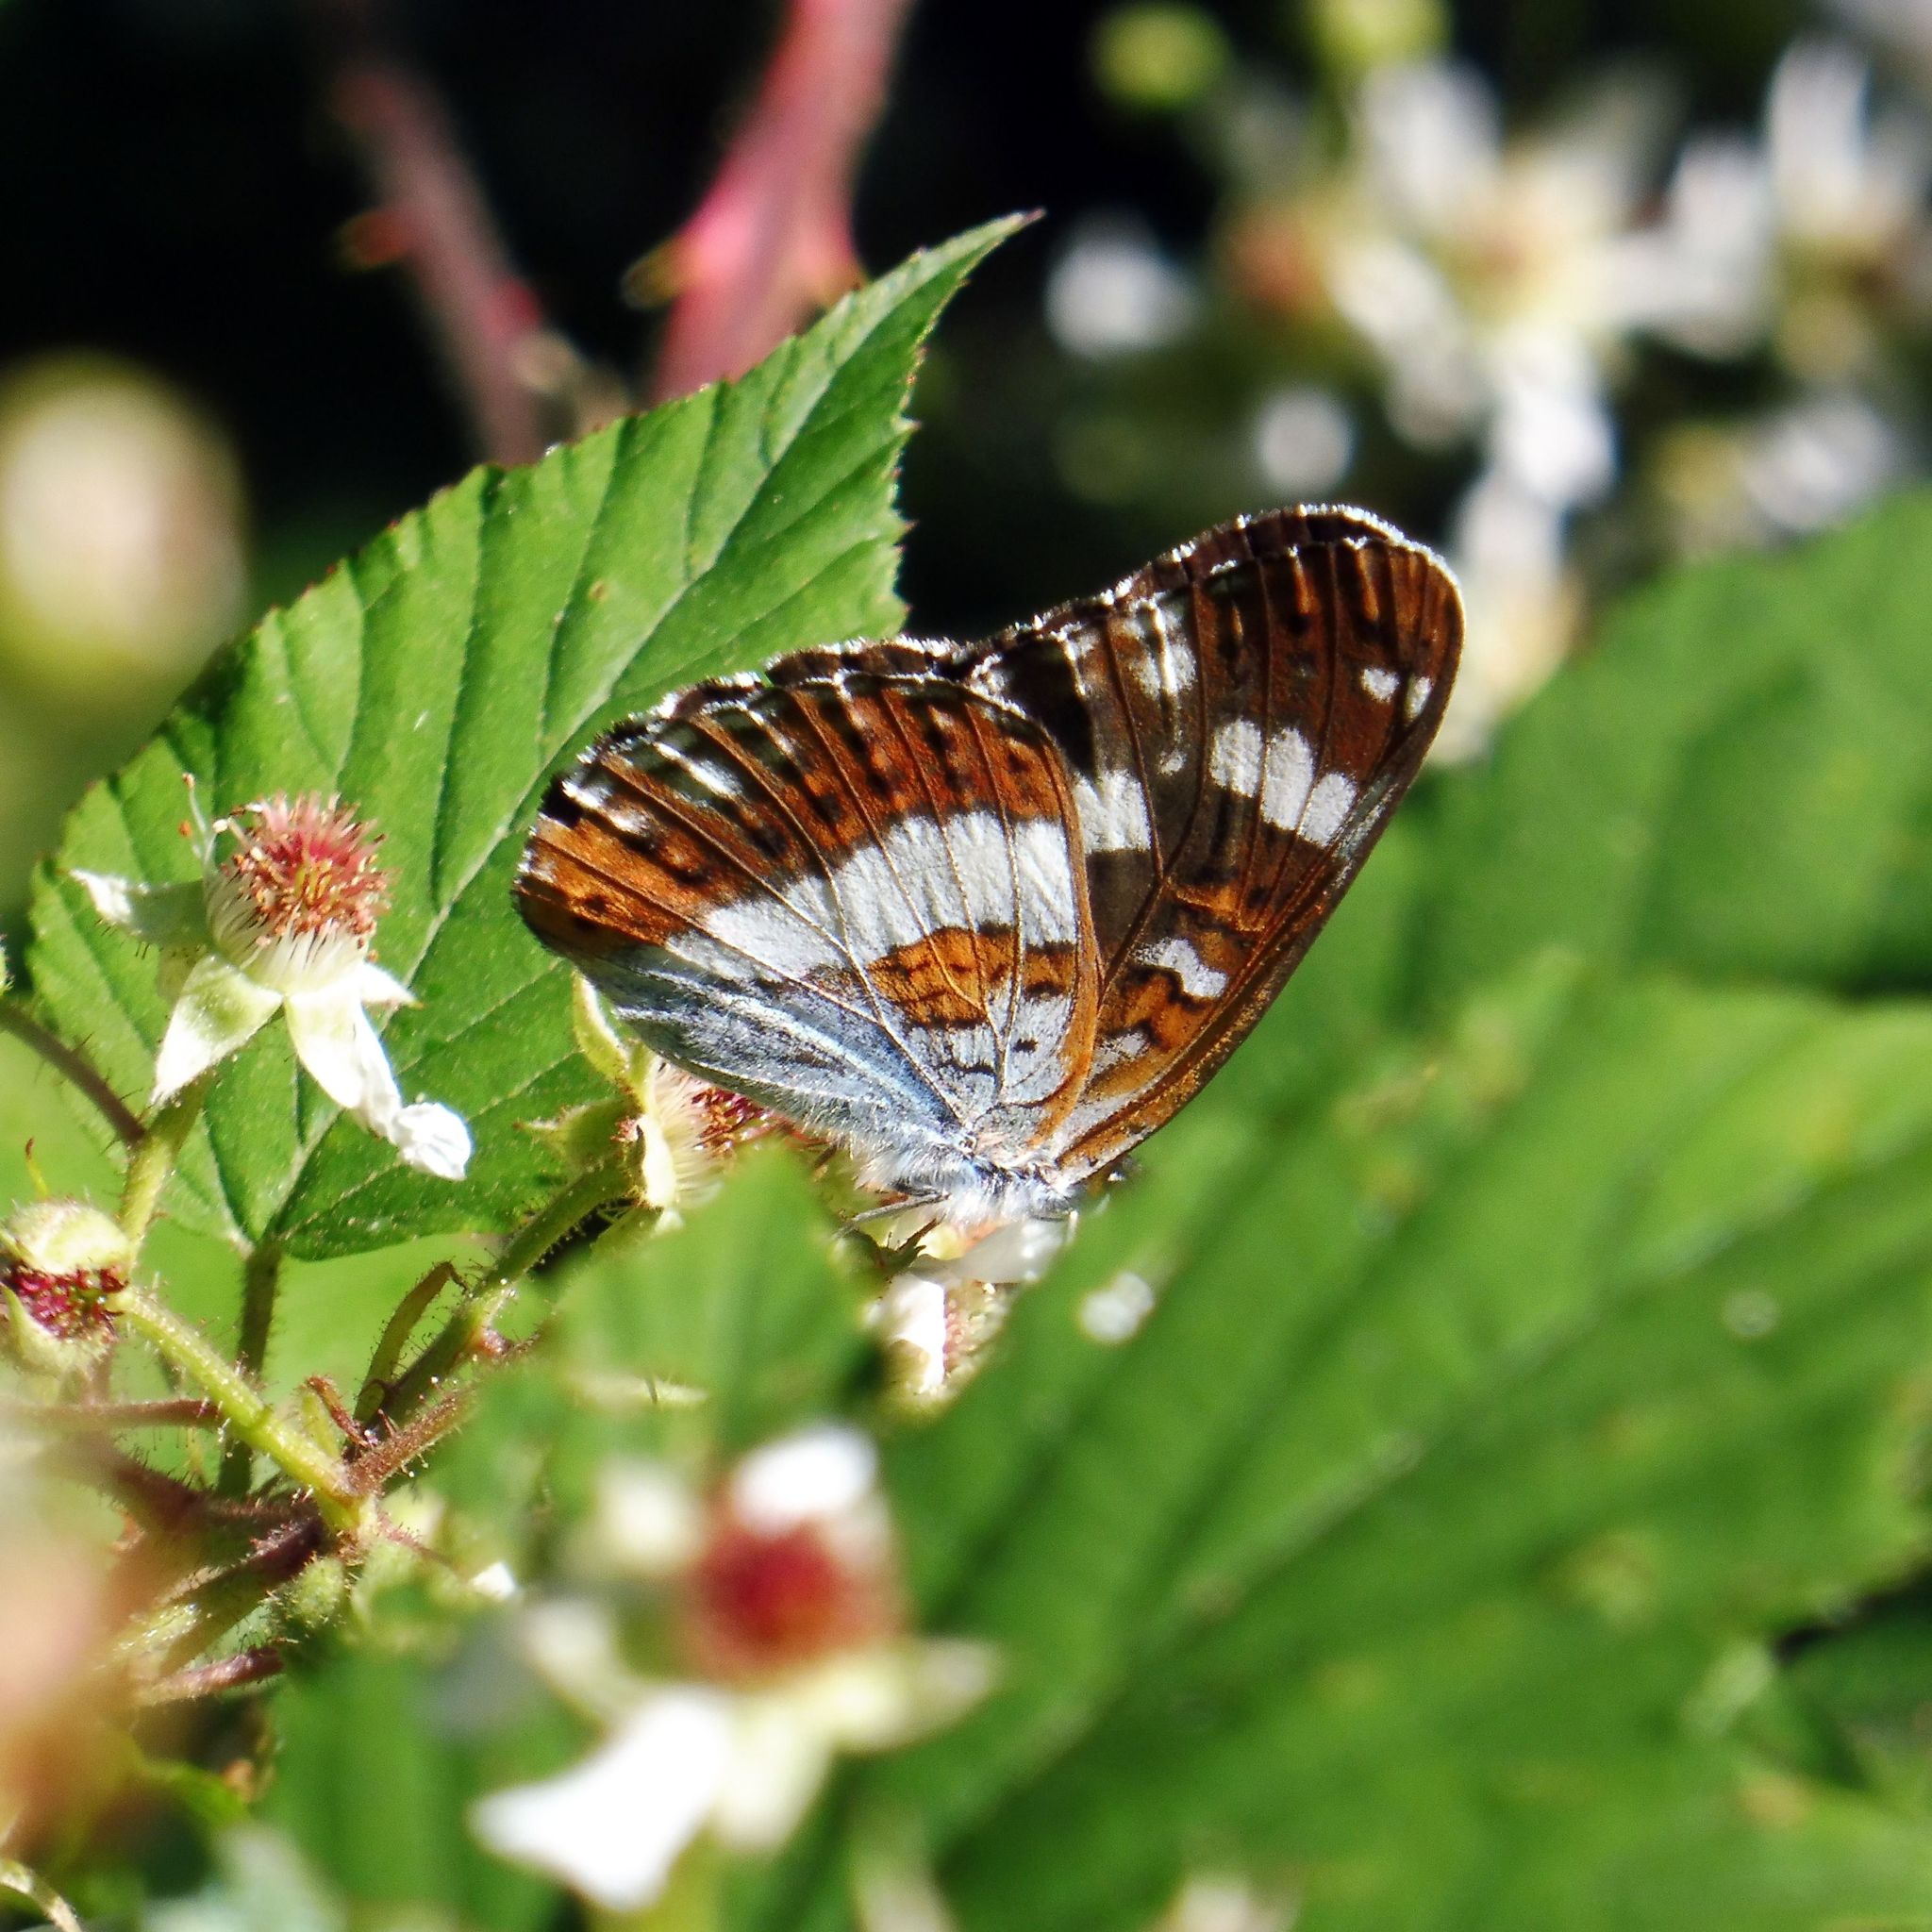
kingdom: Animalia
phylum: Arthropoda
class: Insecta
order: Lepidoptera
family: Nymphalidae
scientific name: Nymphalidae
